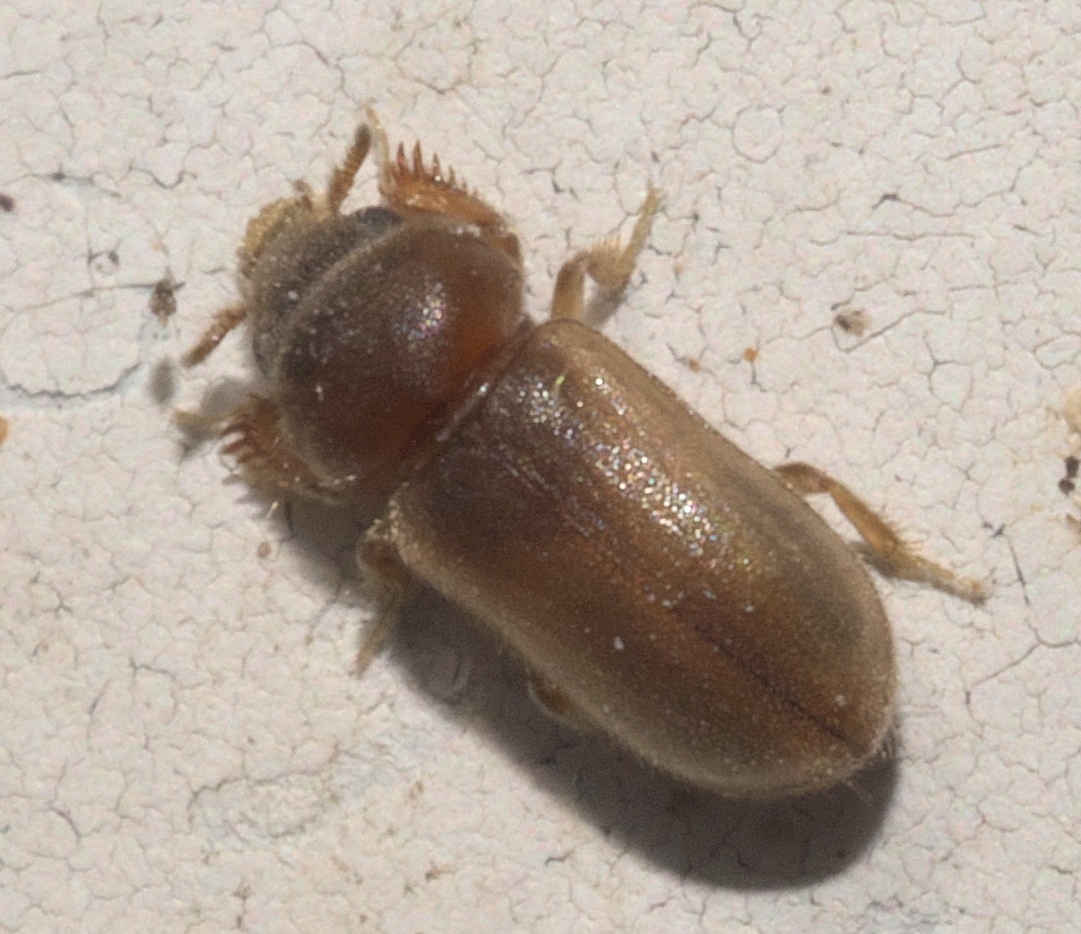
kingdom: Animalia
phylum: Arthropoda
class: Insecta
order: Coleoptera
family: Heteroceridae
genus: Tropicus
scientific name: Tropicus pusillus
